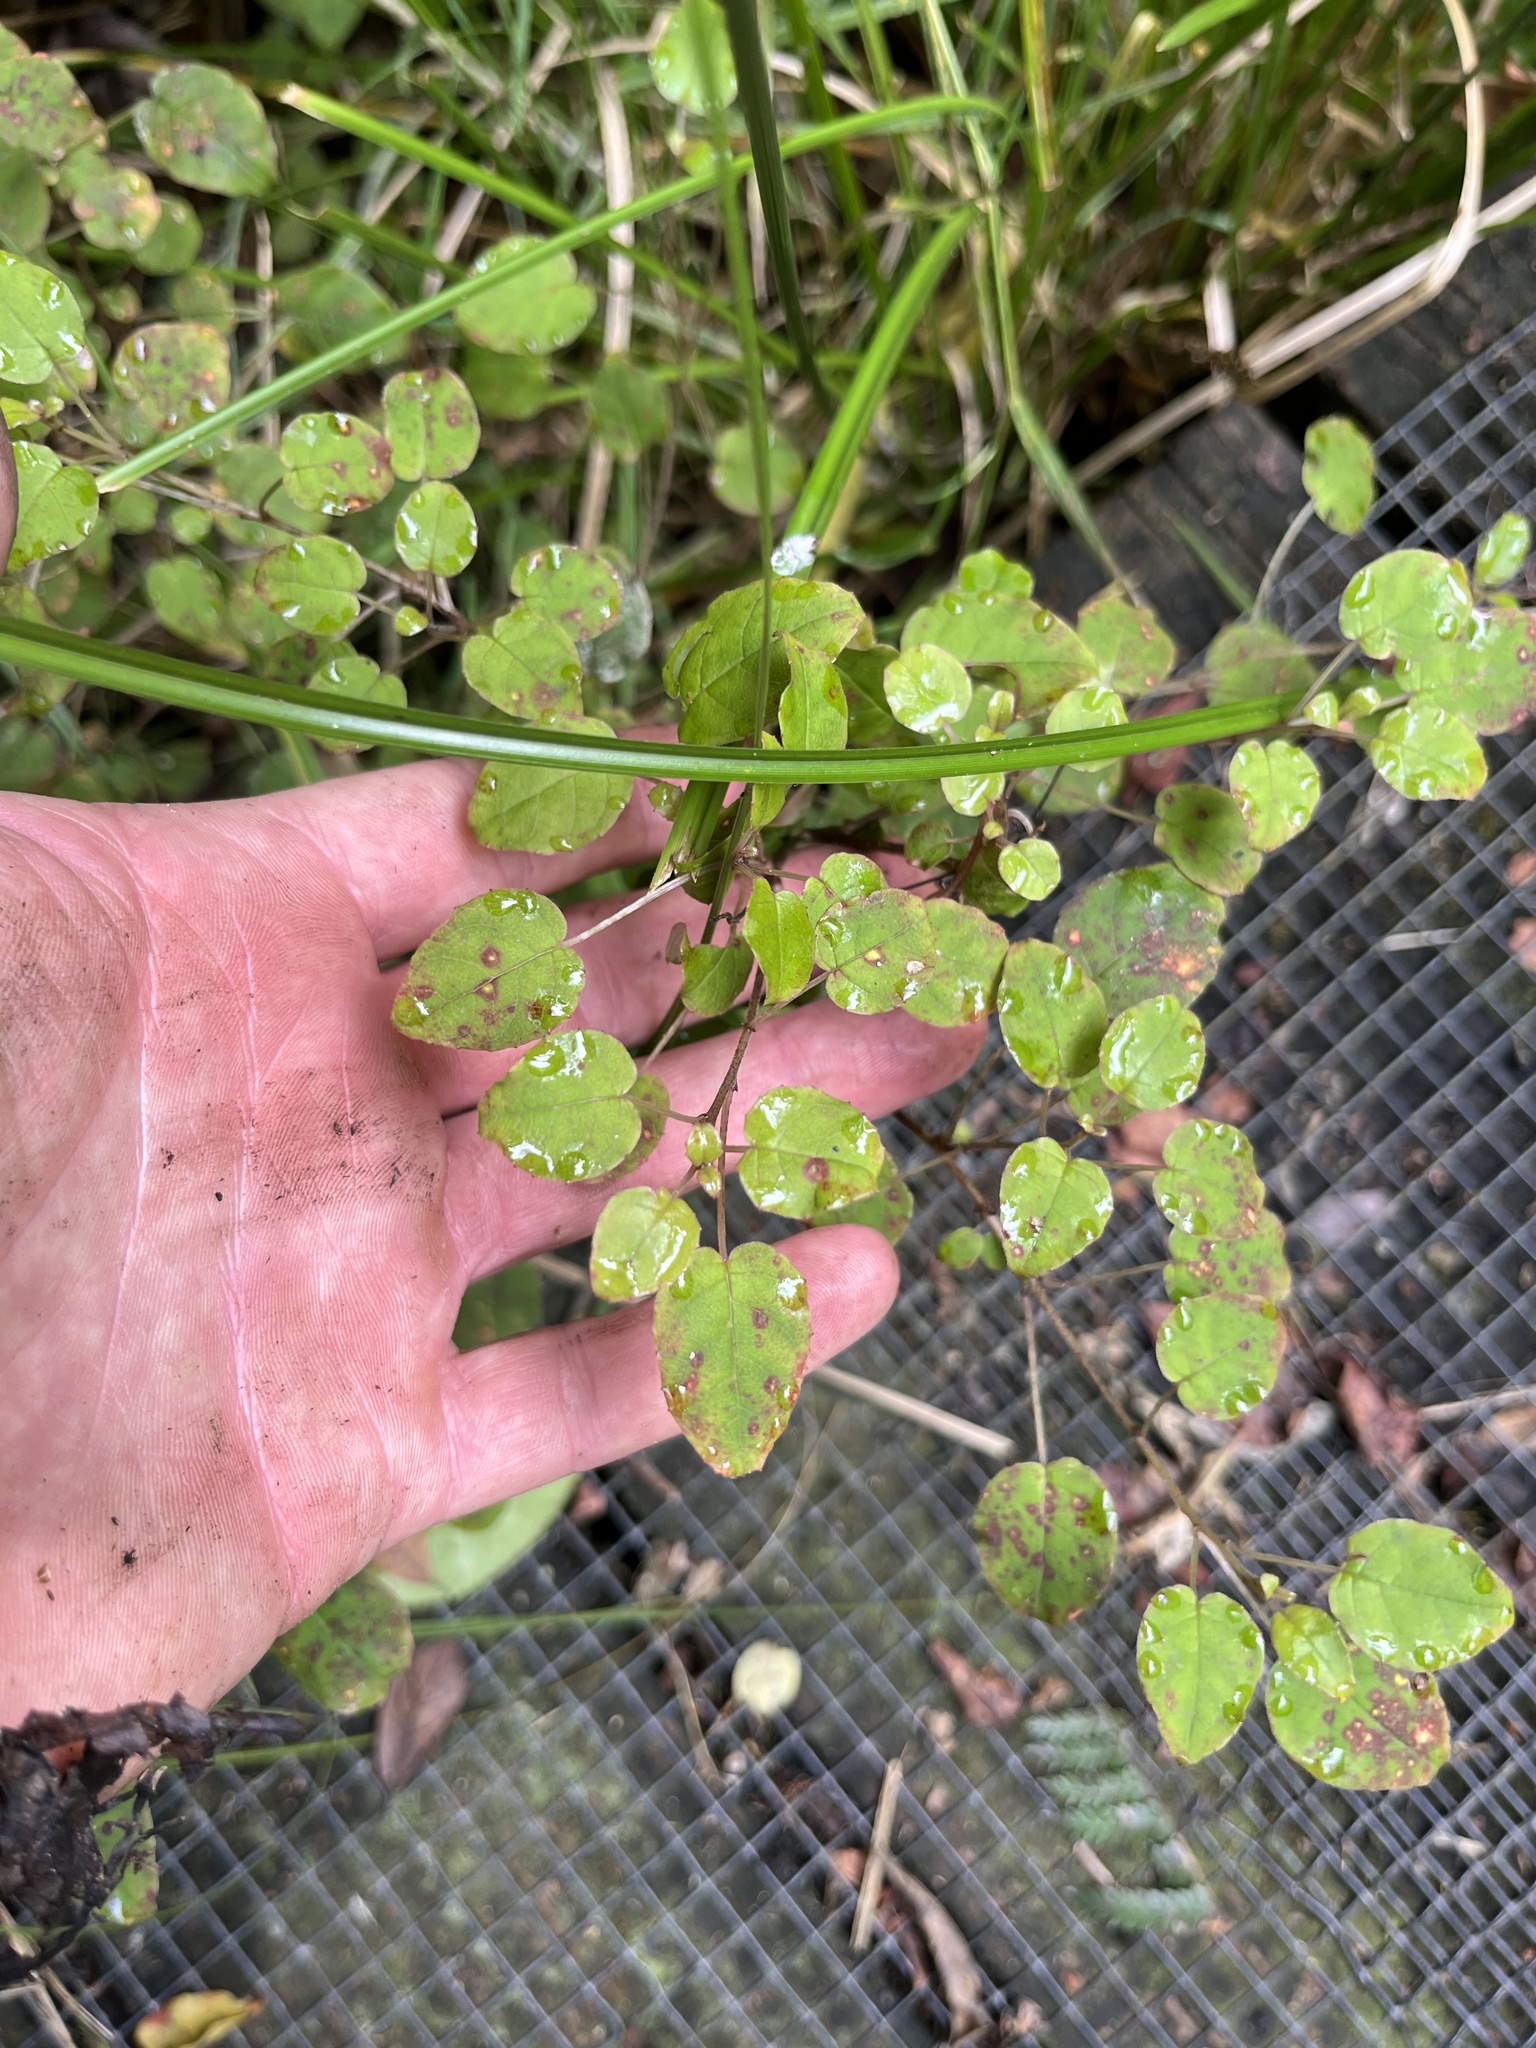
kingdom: Plantae
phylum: Tracheophyta
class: Magnoliopsida
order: Myrtales
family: Onagraceae
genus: Fuchsia
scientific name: Fuchsia procumbens
